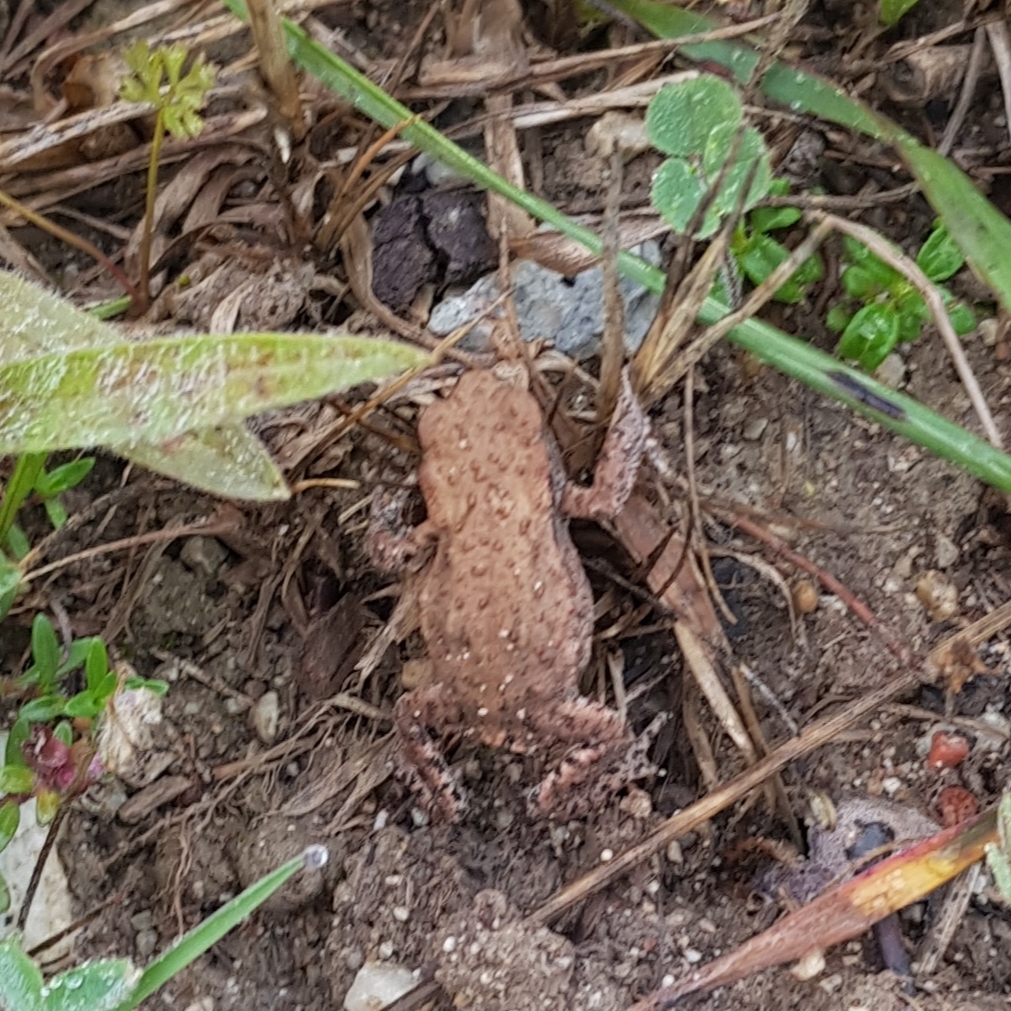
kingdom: Animalia
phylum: Chordata
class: Amphibia
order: Anura
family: Bufonidae
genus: Bufo
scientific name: Bufo bufo
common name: Common toad
